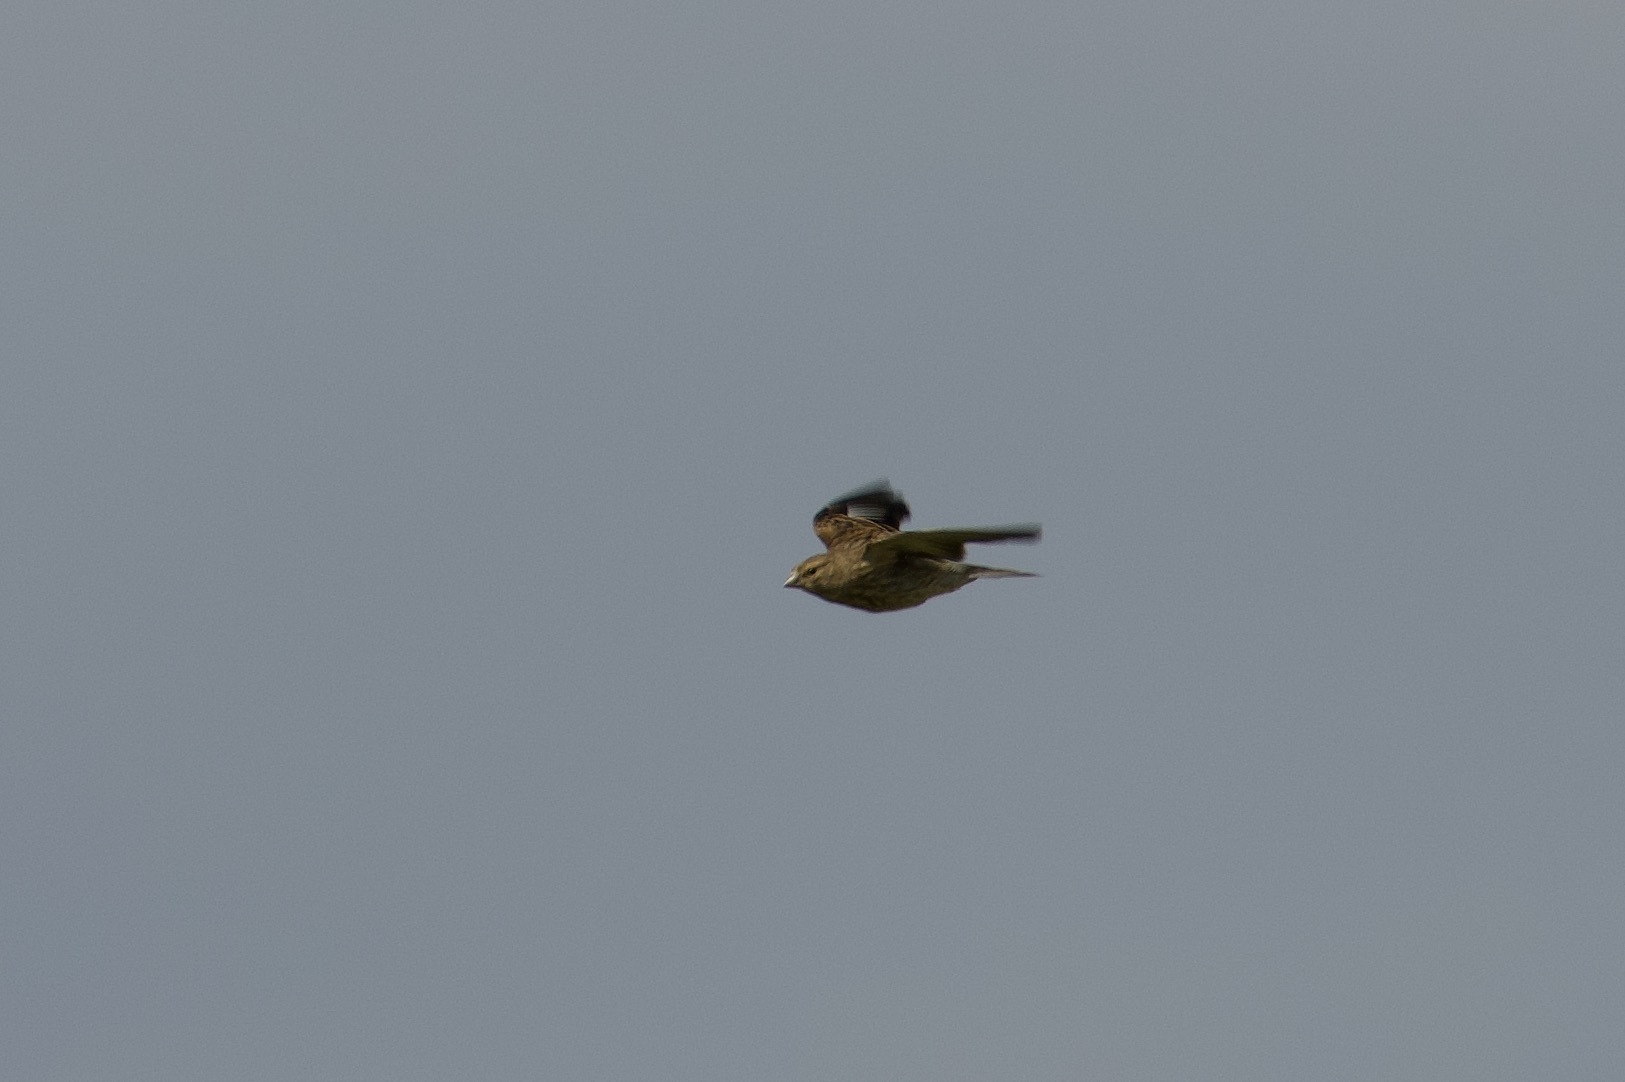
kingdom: Animalia
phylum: Chordata
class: Aves
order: Passeriformes
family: Fringillidae
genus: Linaria
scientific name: Linaria cannabina
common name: Common linnet
